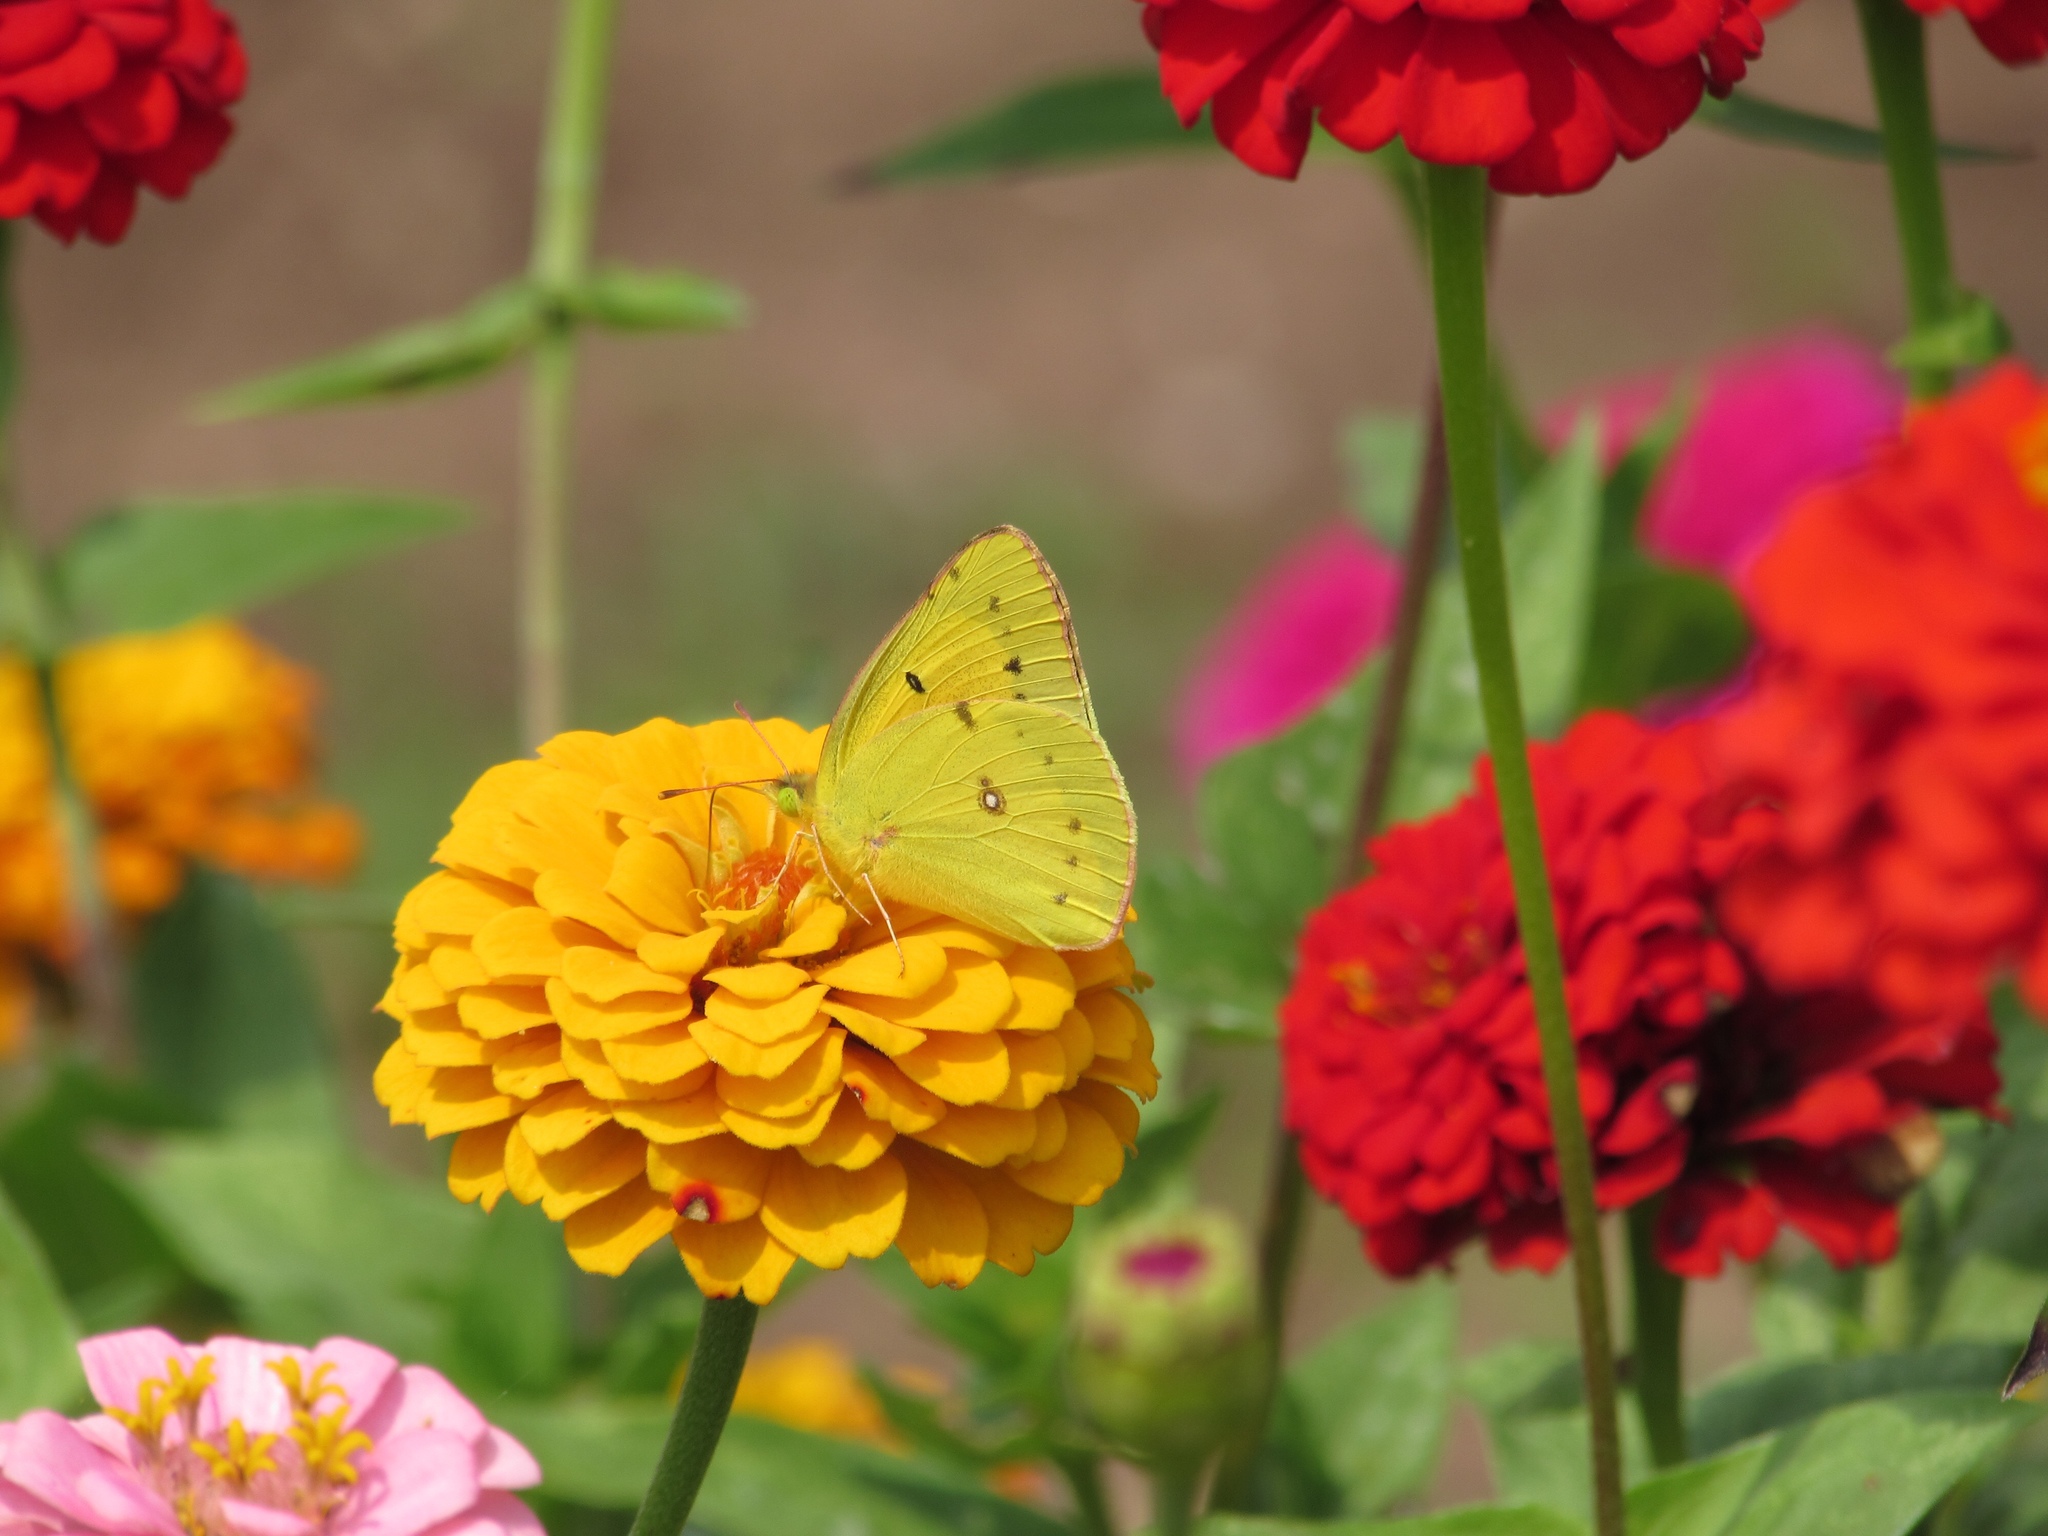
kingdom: Animalia
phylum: Arthropoda
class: Insecta
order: Lepidoptera
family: Pieridae
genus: Colias
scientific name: Colias eurytheme
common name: Alfalfa butterfly
